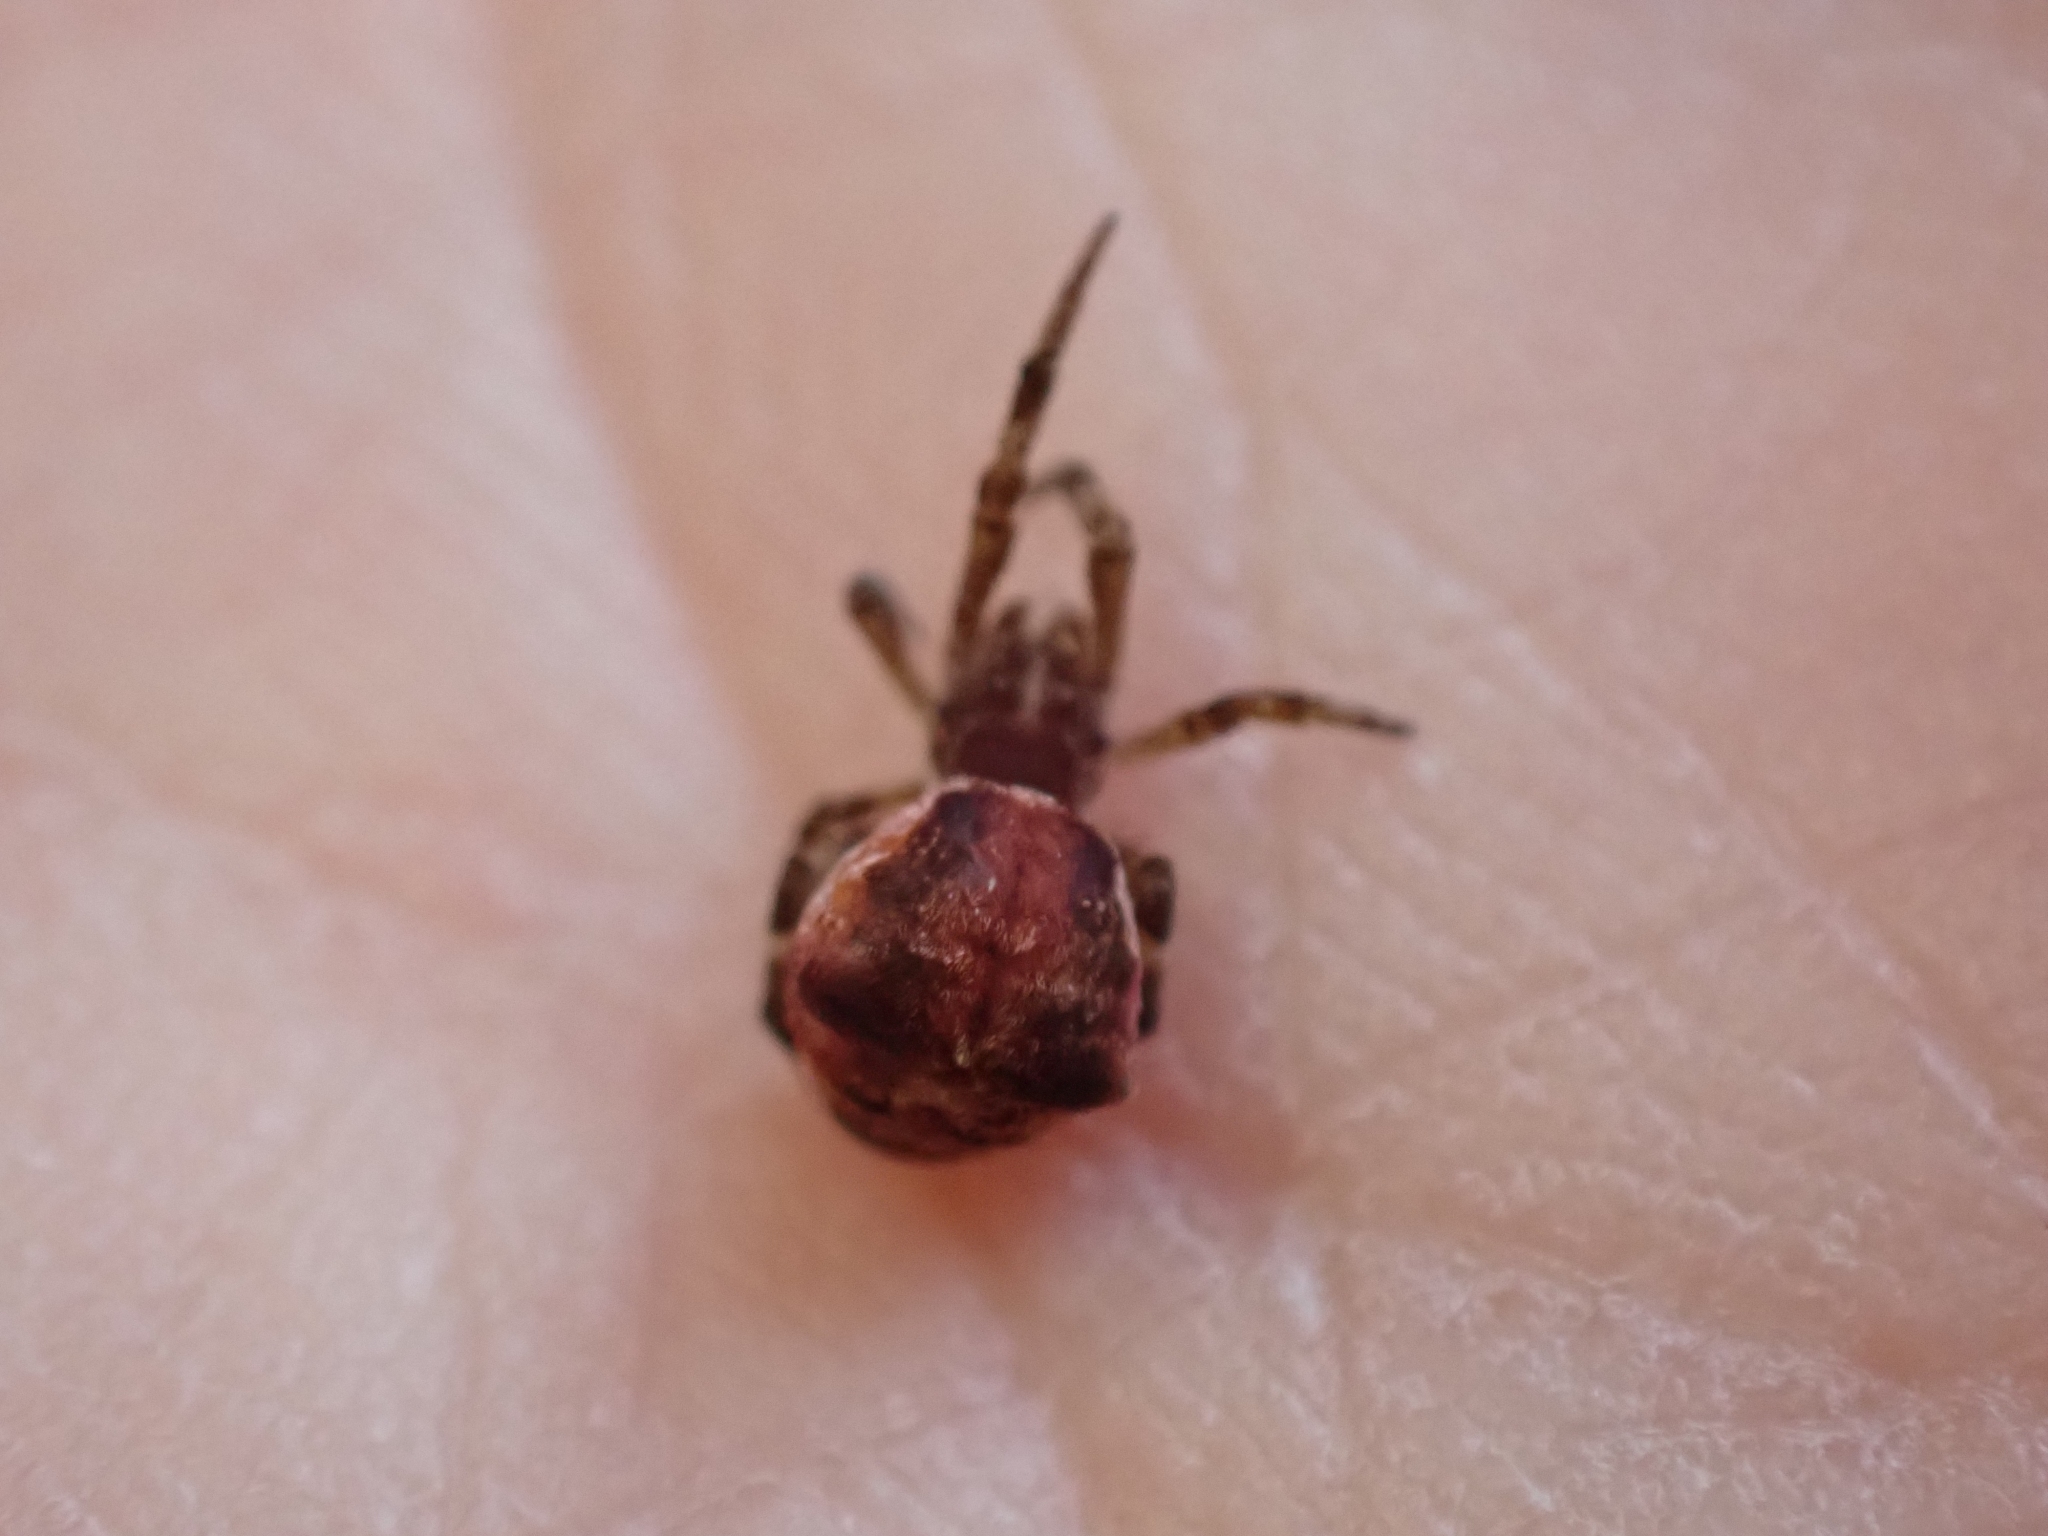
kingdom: Animalia
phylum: Arthropoda
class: Arachnida
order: Araneae
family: Uloboridae
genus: Hyptiotes
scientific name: Hyptiotes gertschi
